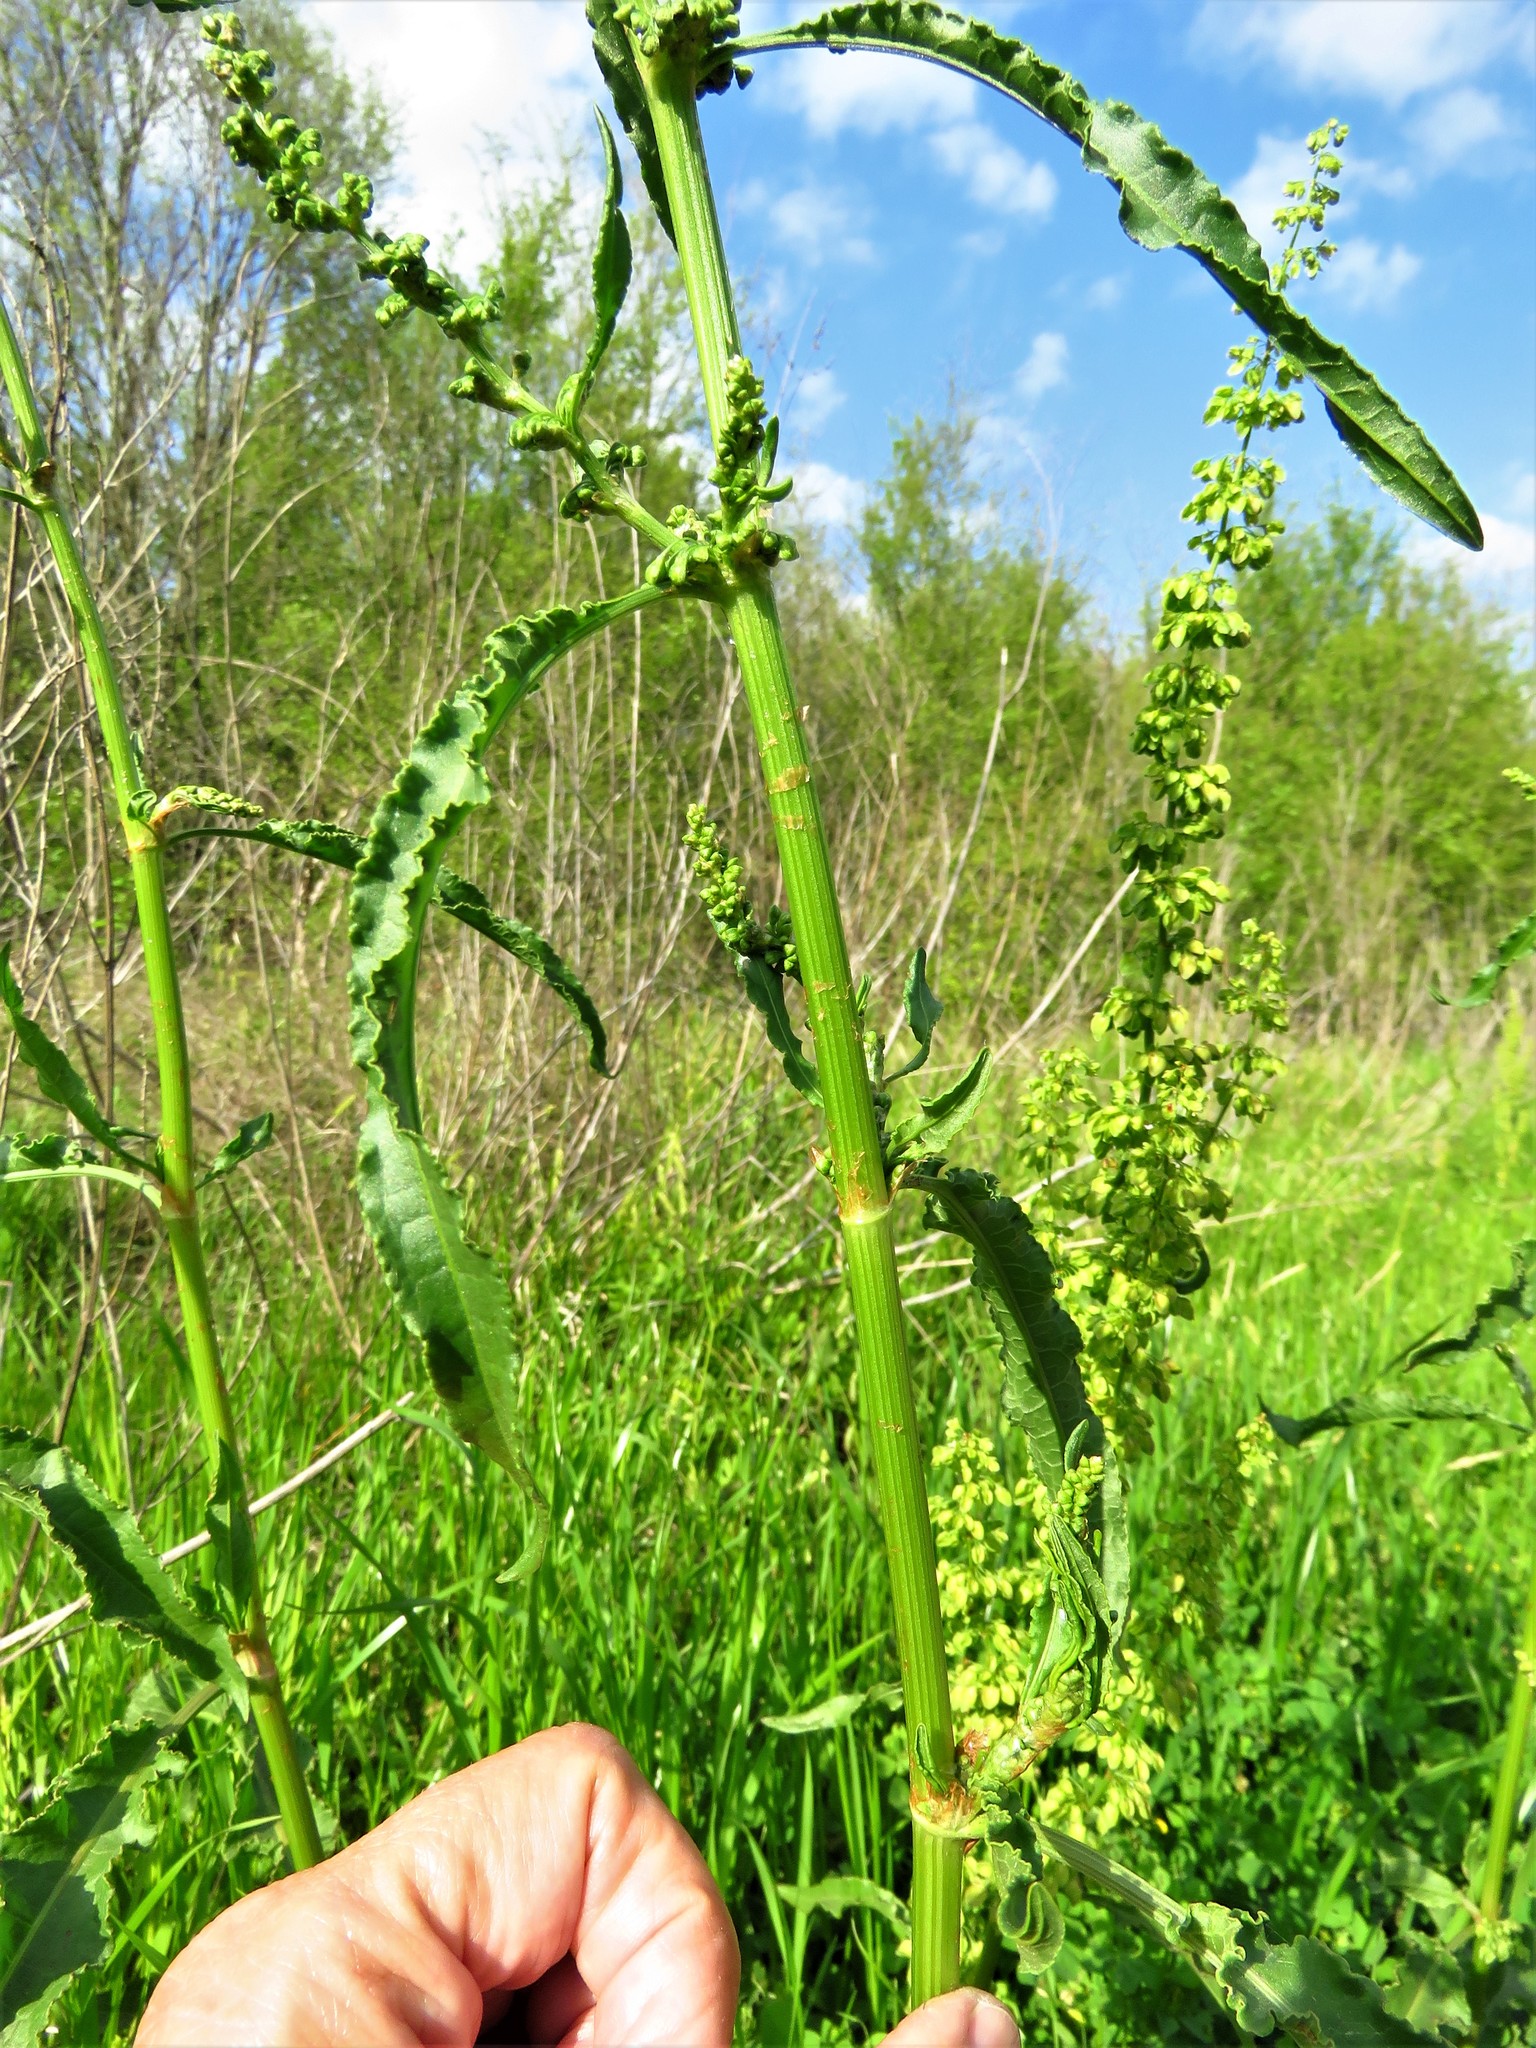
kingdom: Plantae
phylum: Tracheophyta
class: Magnoliopsida
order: Caryophyllales
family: Polygonaceae
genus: Rumex
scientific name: Rumex crispus
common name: Curled dock
